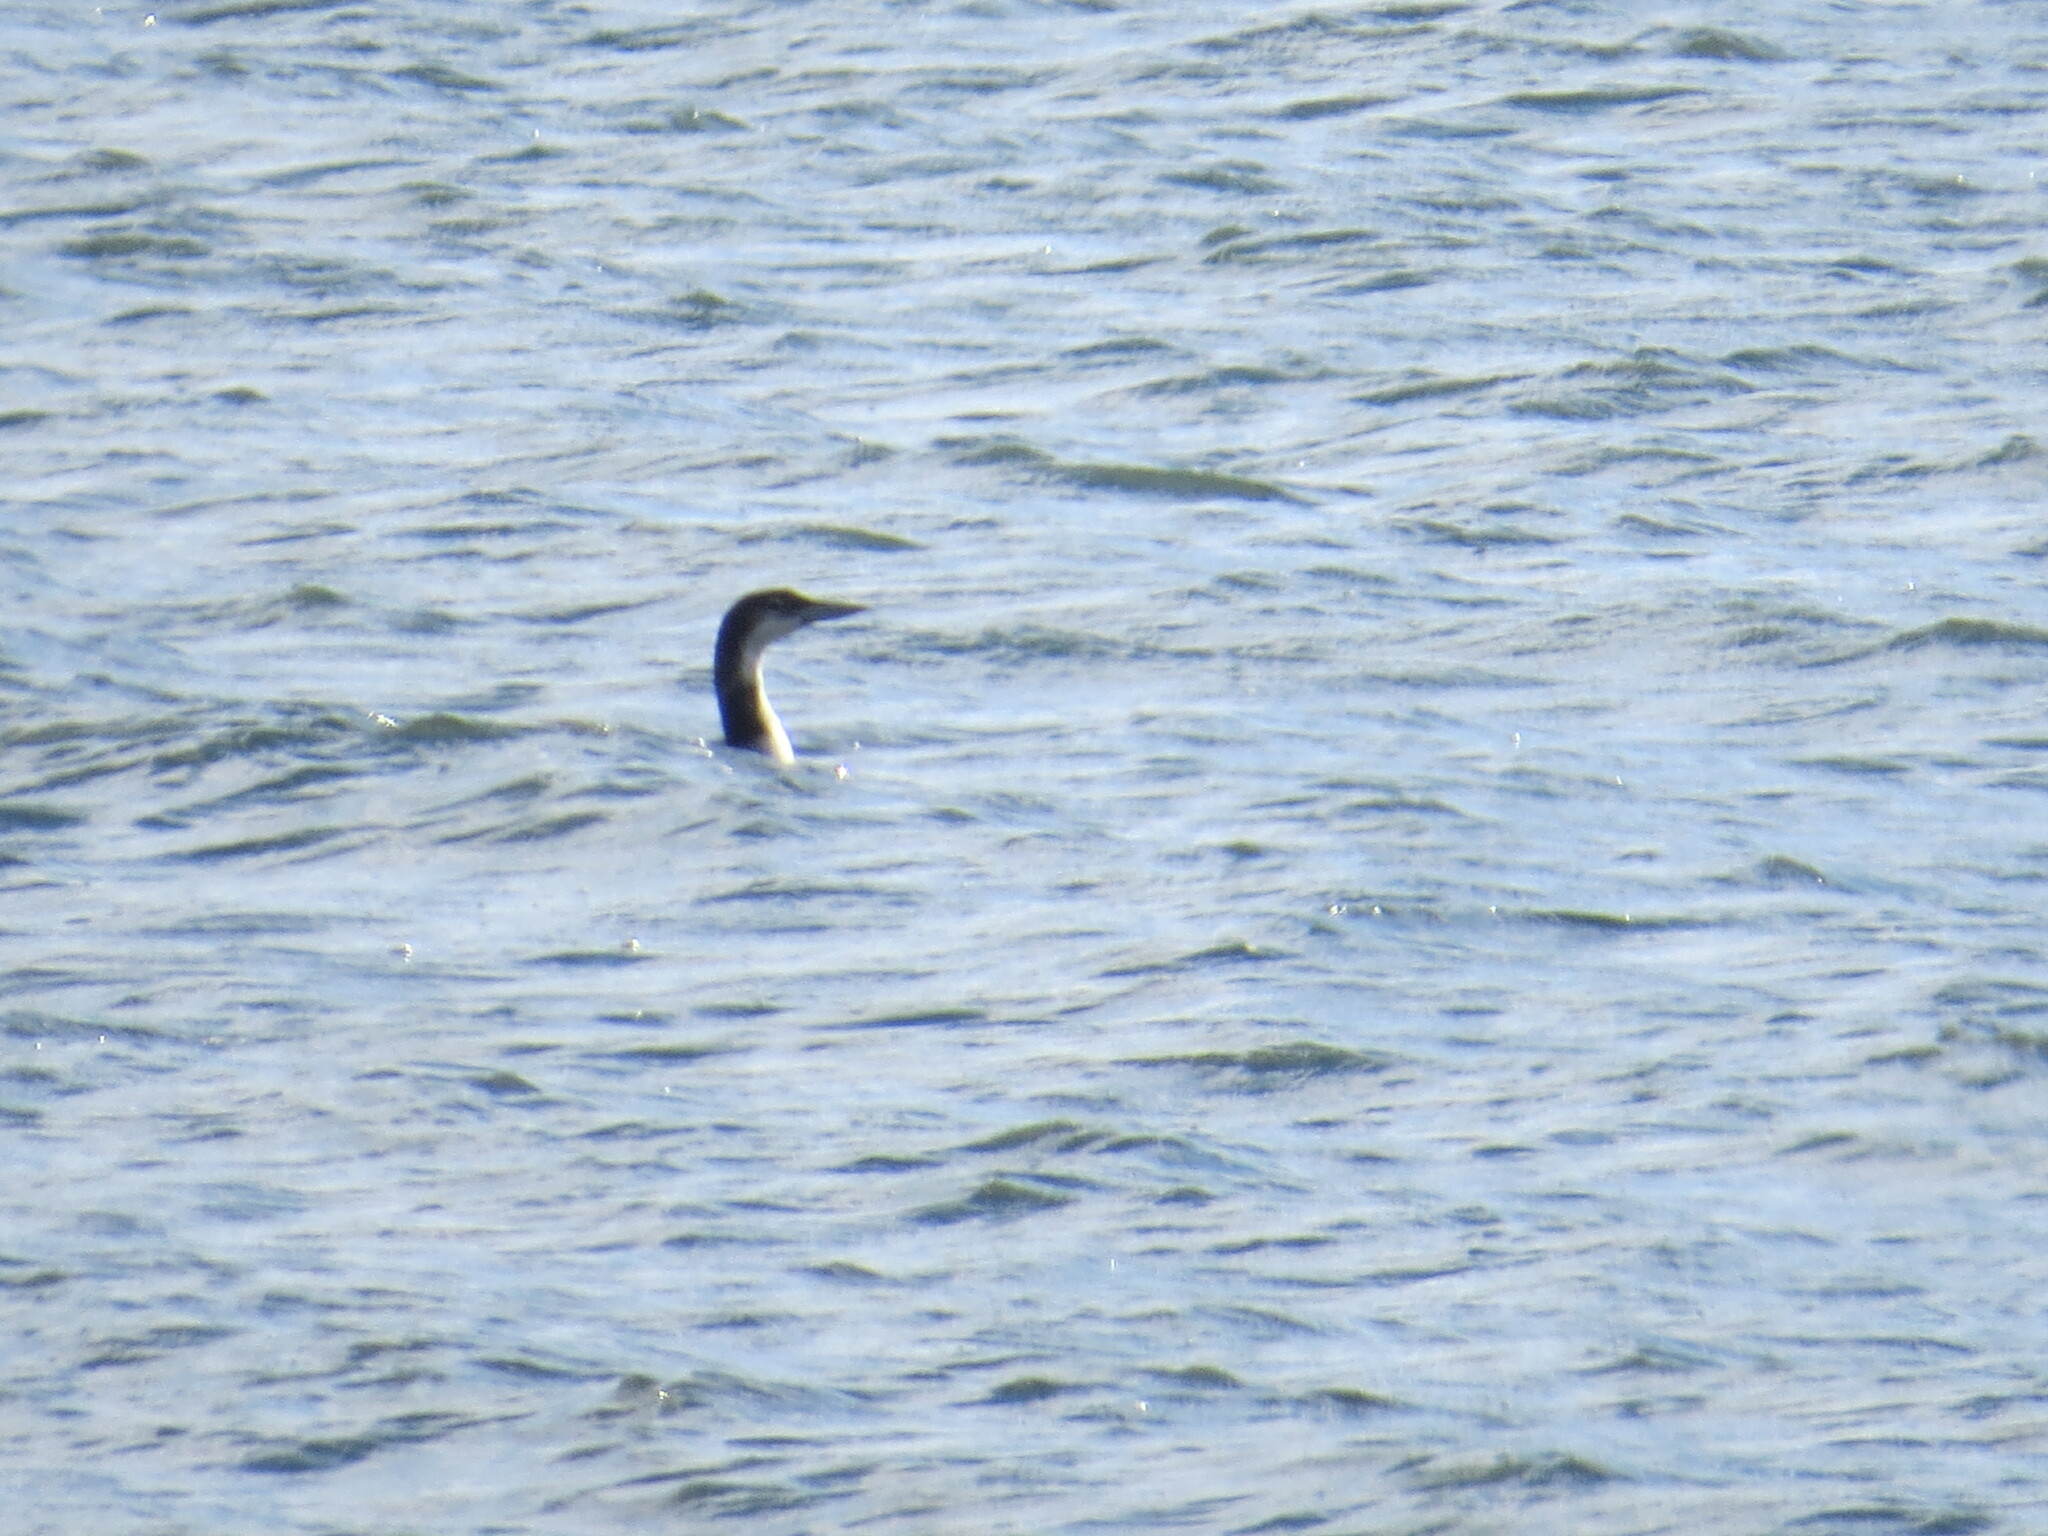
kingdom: Animalia
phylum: Chordata
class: Aves
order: Gaviiformes
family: Gaviidae
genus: Gavia
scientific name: Gavia immer
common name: Common loon
